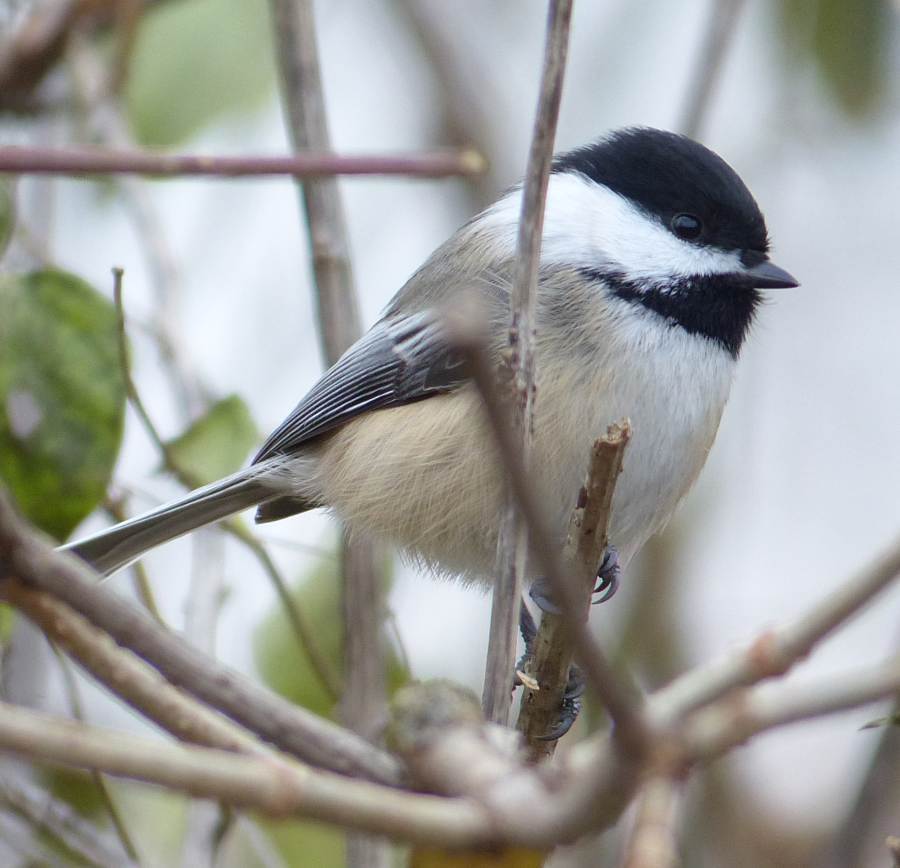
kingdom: Animalia
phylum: Chordata
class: Aves
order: Passeriformes
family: Paridae
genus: Poecile
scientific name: Poecile atricapillus
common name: Black-capped chickadee
